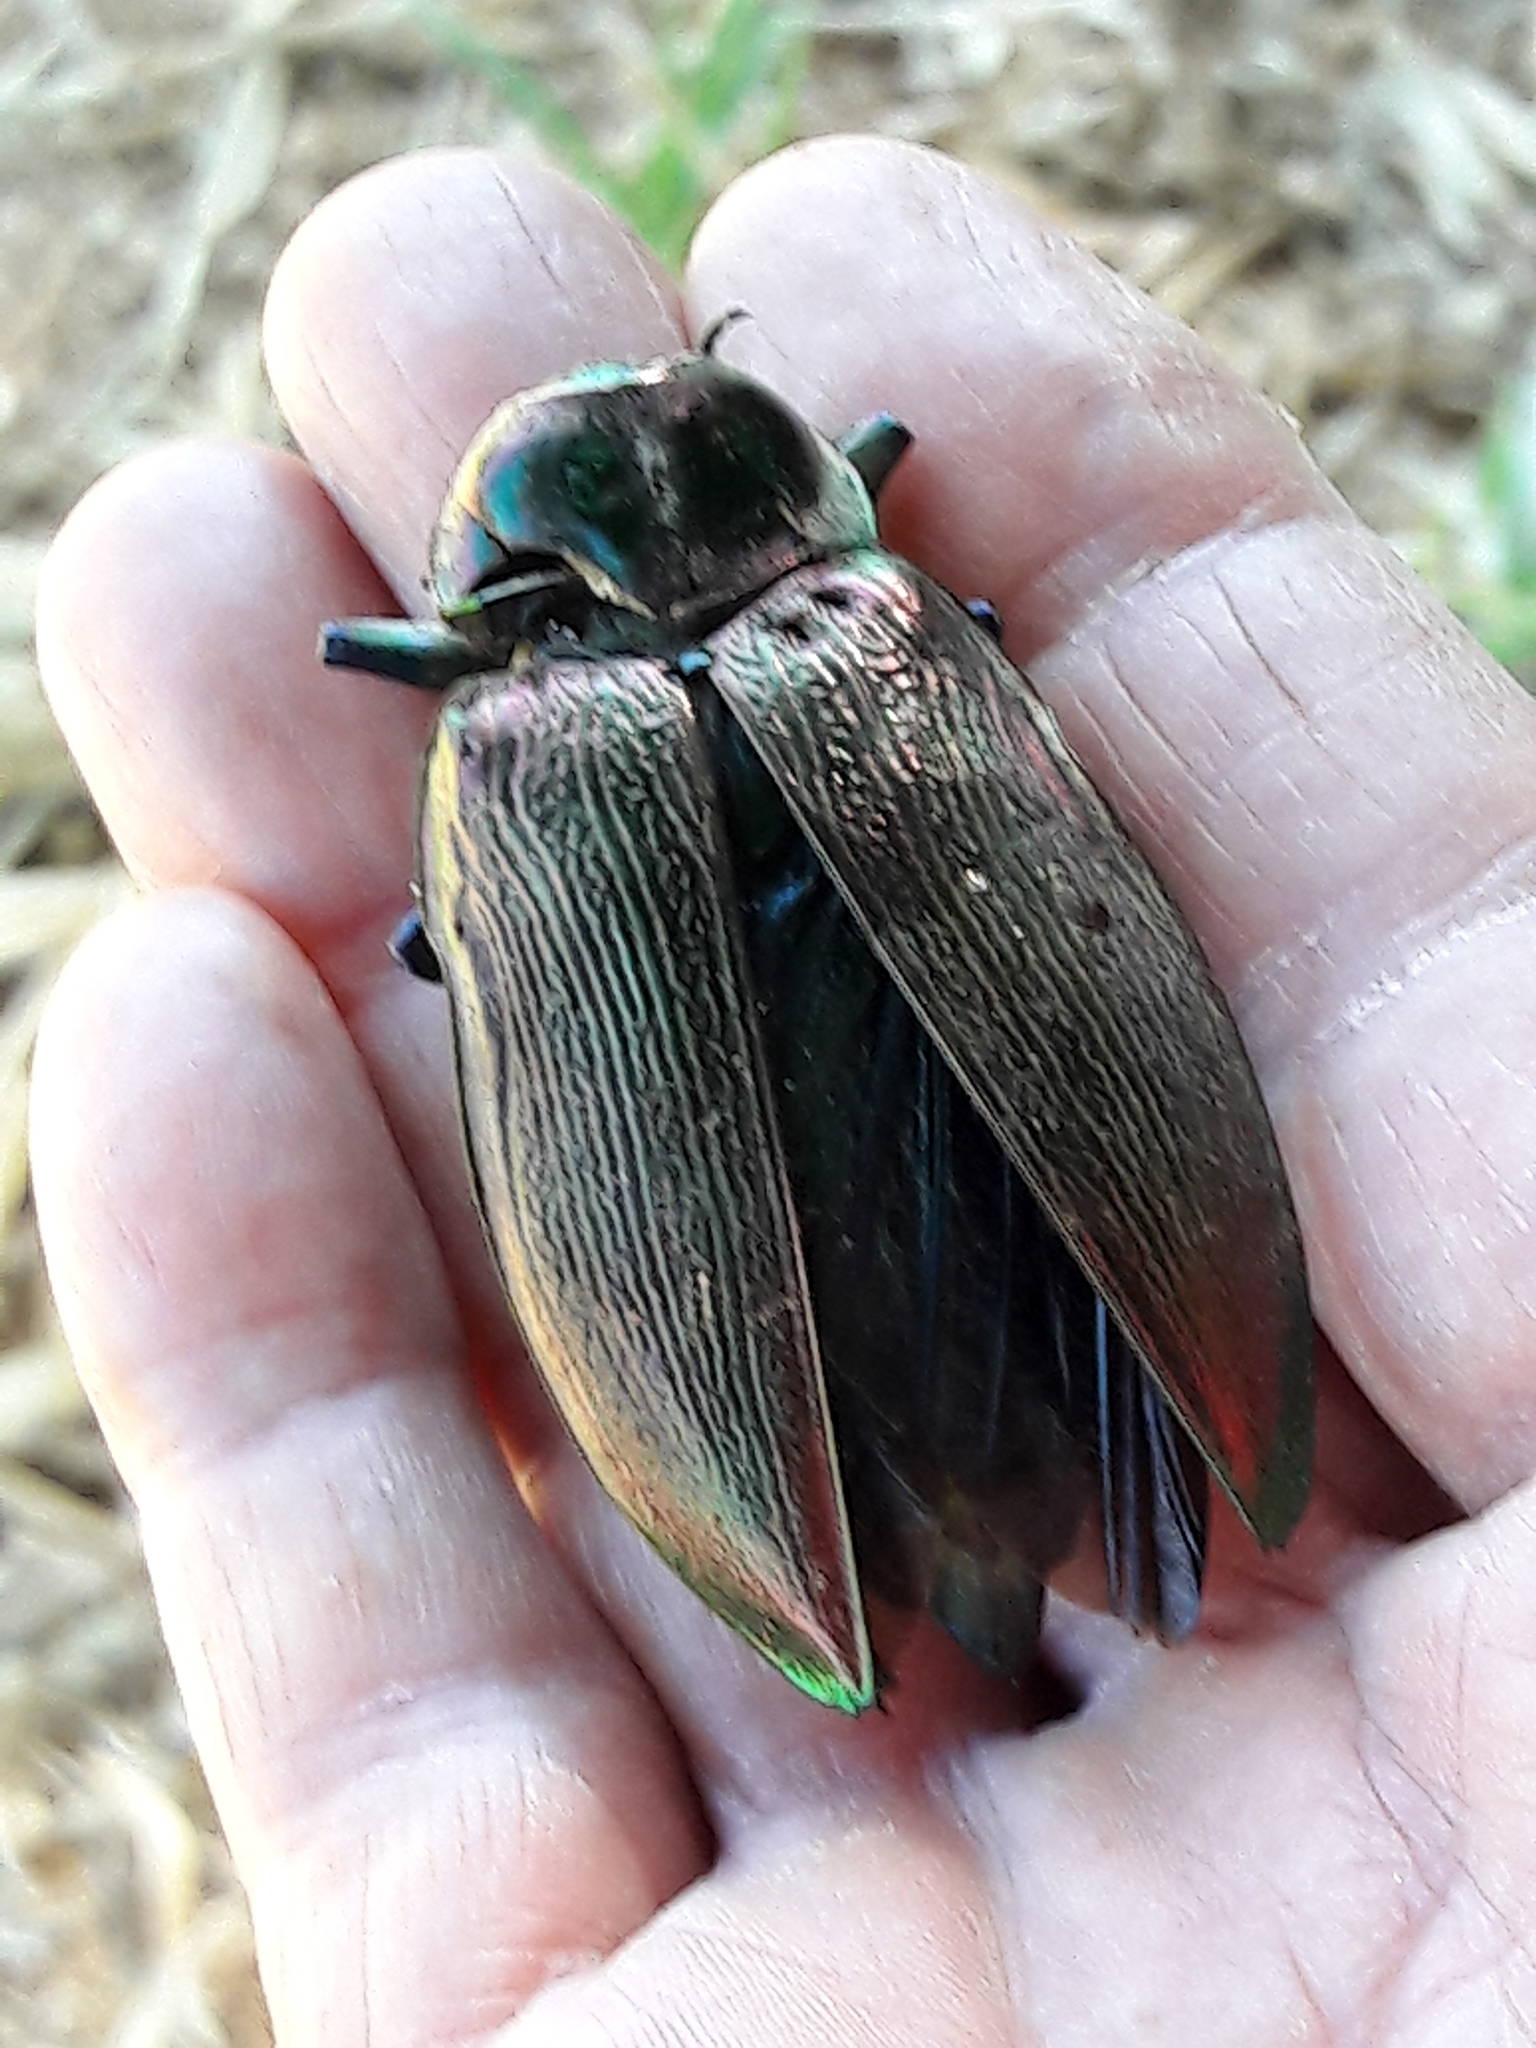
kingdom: Animalia
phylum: Arthropoda
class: Insecta
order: Coleoptera
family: Buprestidae
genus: Euchroma
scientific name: Euchroma giganteum
